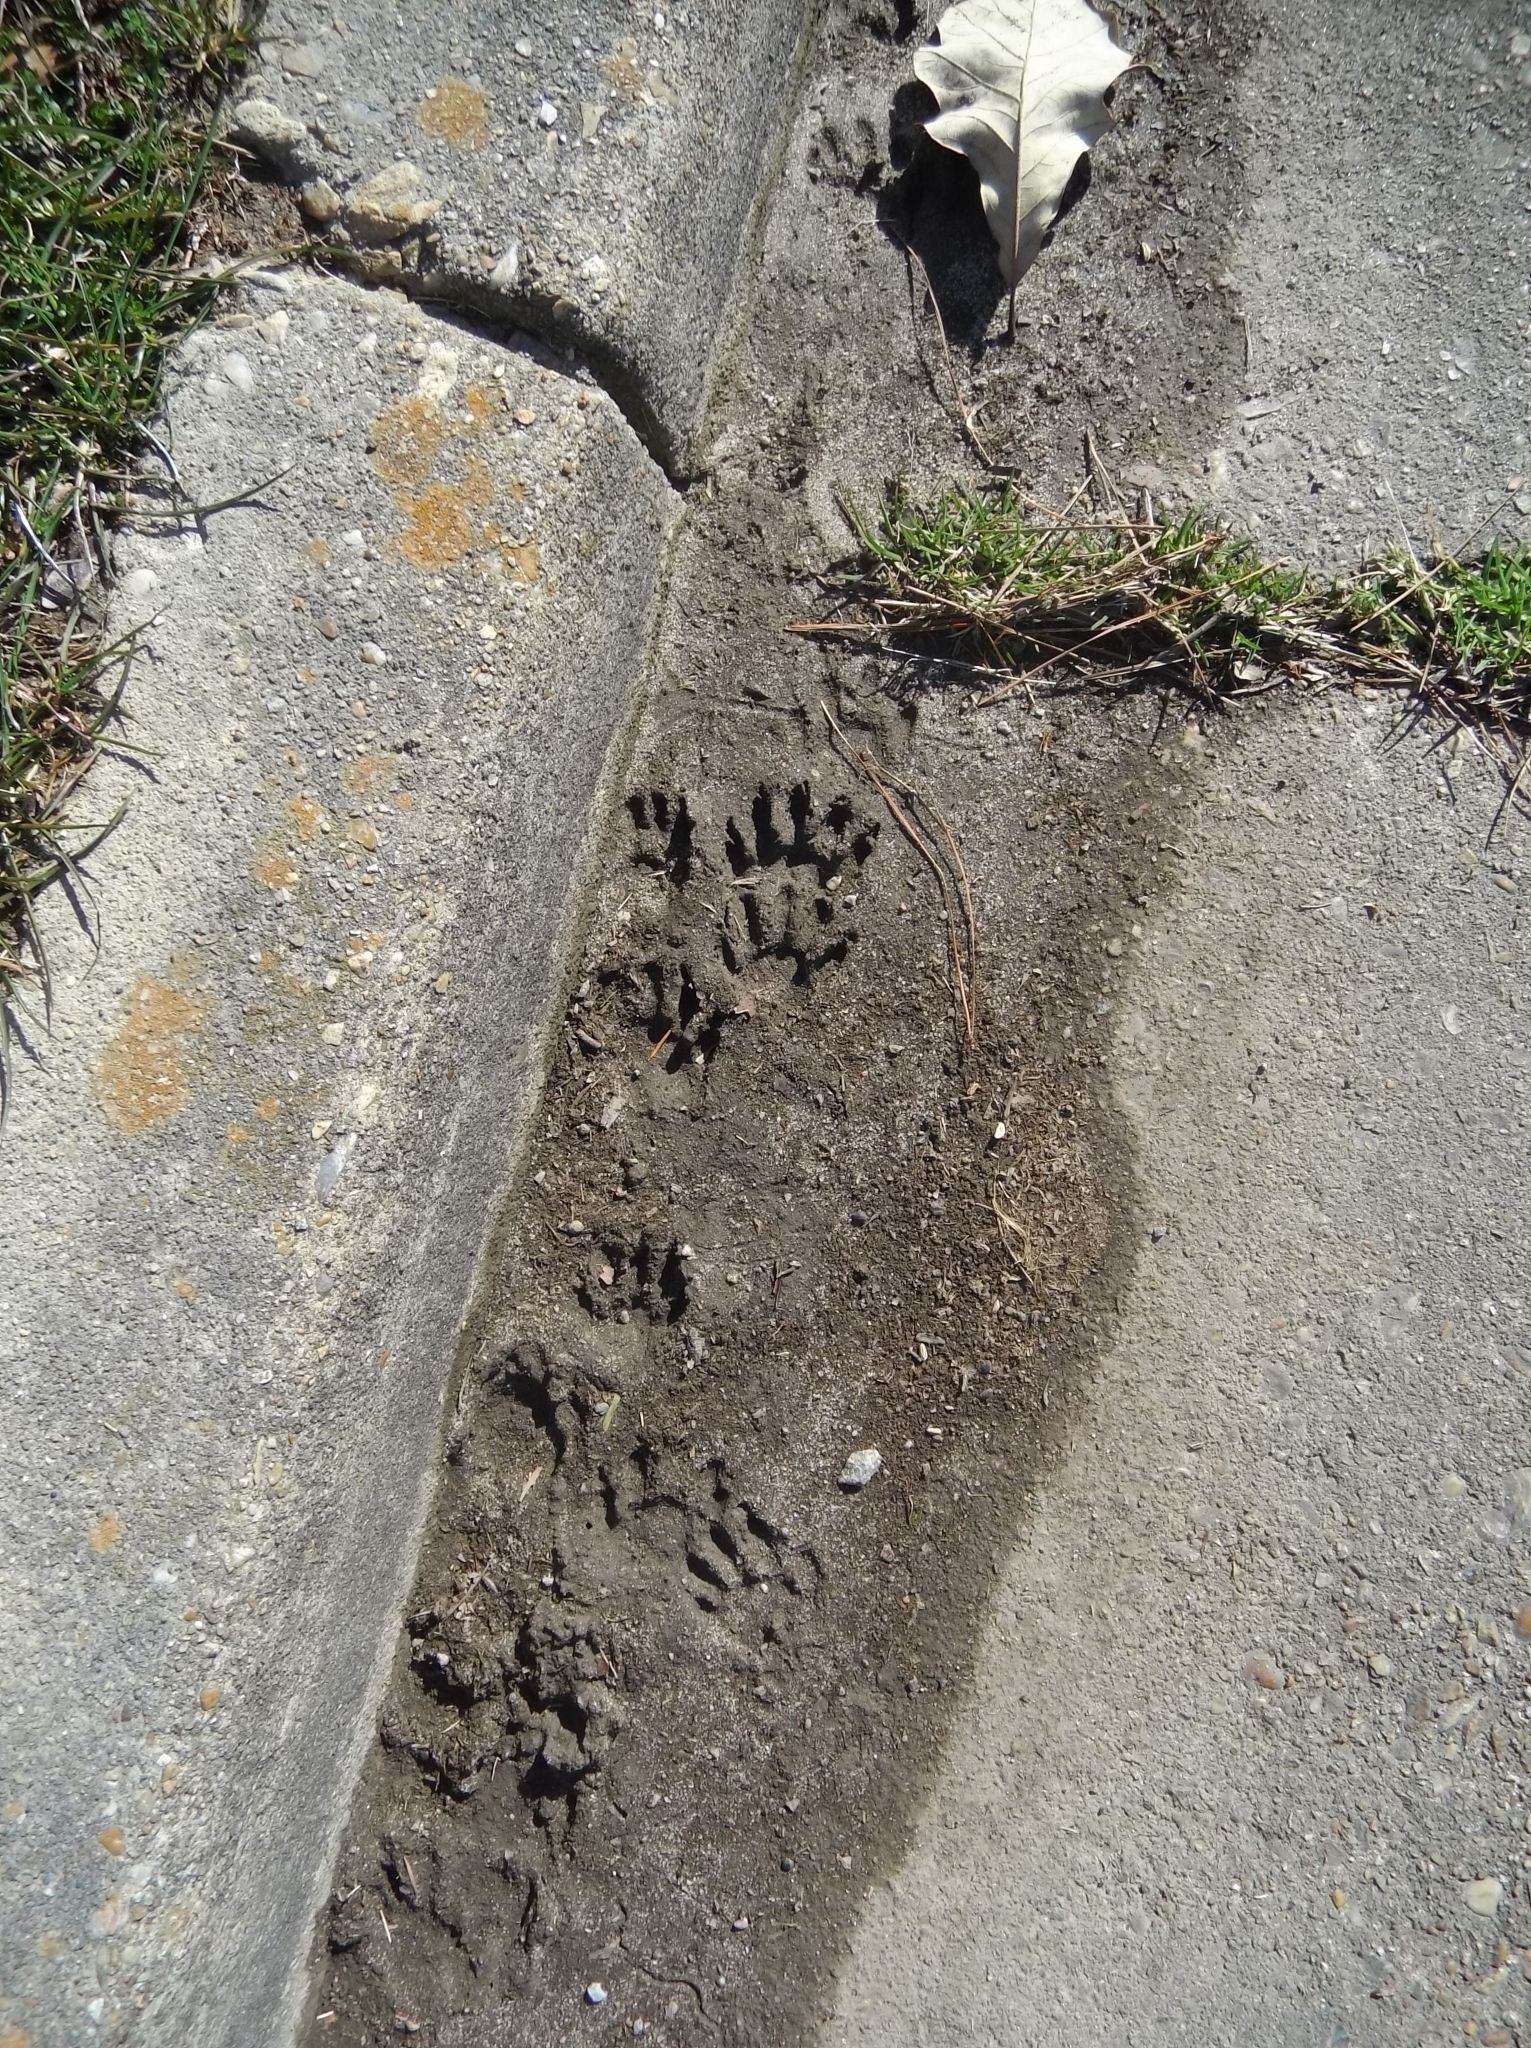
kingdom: Animalia
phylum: Chordata
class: Mammalia
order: Carnivora
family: Procyonidae
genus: Procyon
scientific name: Procyon lotor
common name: Raccoon
